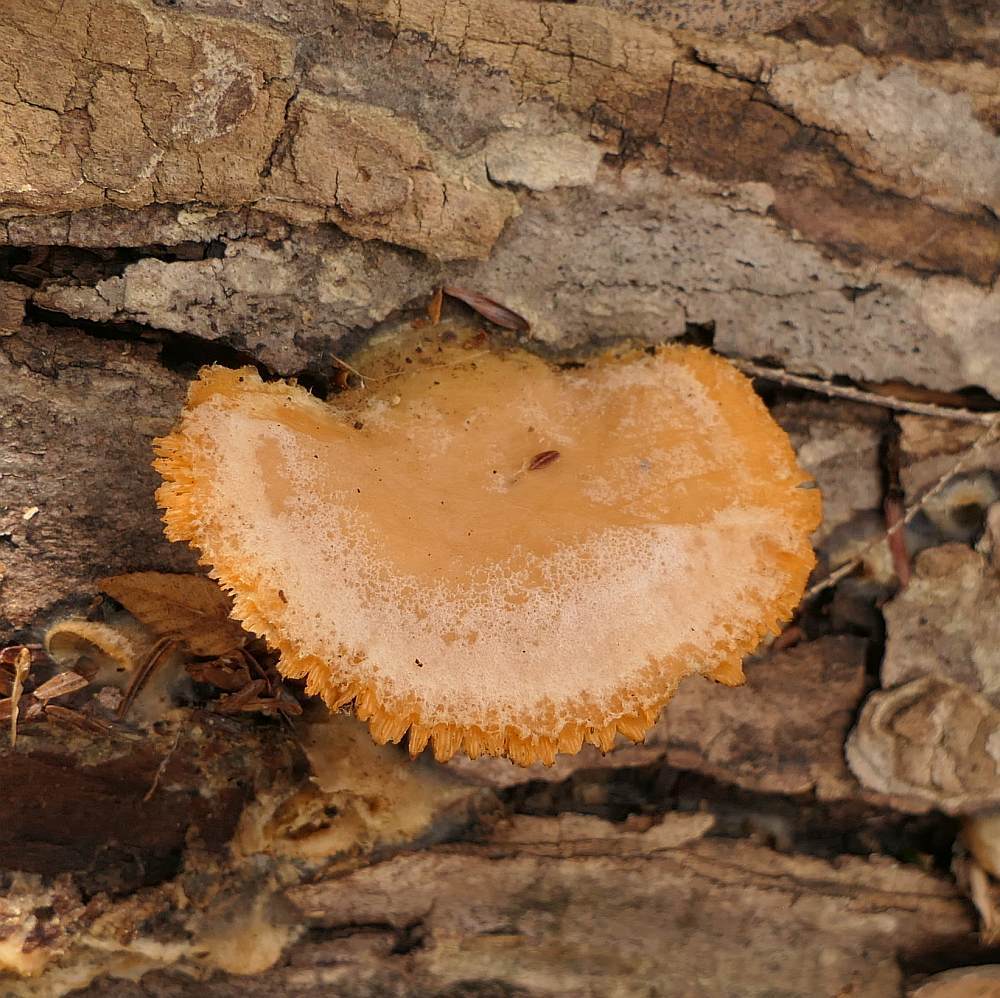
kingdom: Fungi
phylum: Basidiomycota
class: Agaricomycetes
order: Agaricales
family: Phyllotopsidaceae
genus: Phyllotopsis
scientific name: Phyllotopsis nidulans
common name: Orange mock oyster
